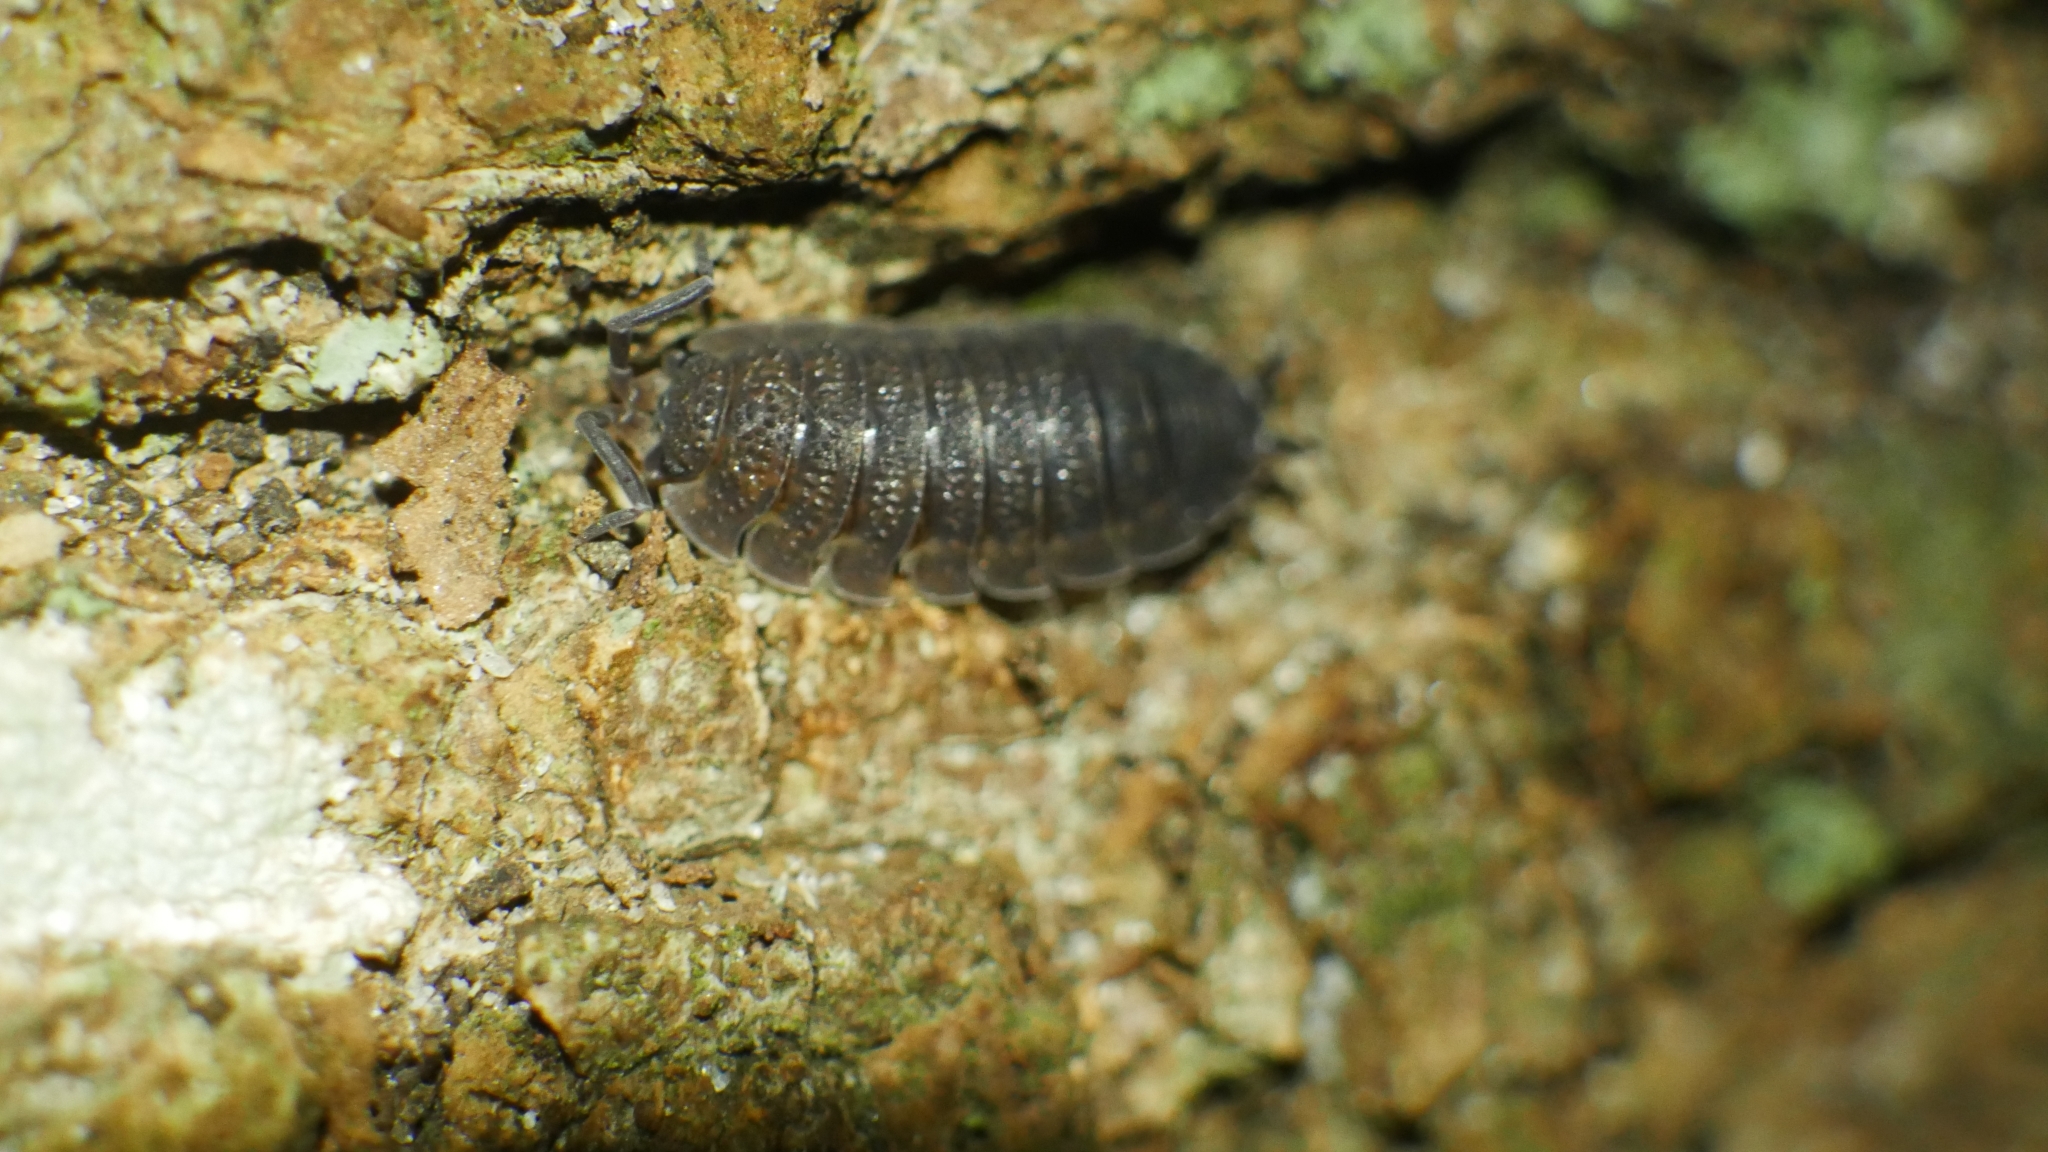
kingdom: Animalia
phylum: Arthropoda
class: Malacostraca
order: Isopoda
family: Porcellionidae
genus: Porcellio
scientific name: Porcellio scaber
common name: Common rough woodlouse
